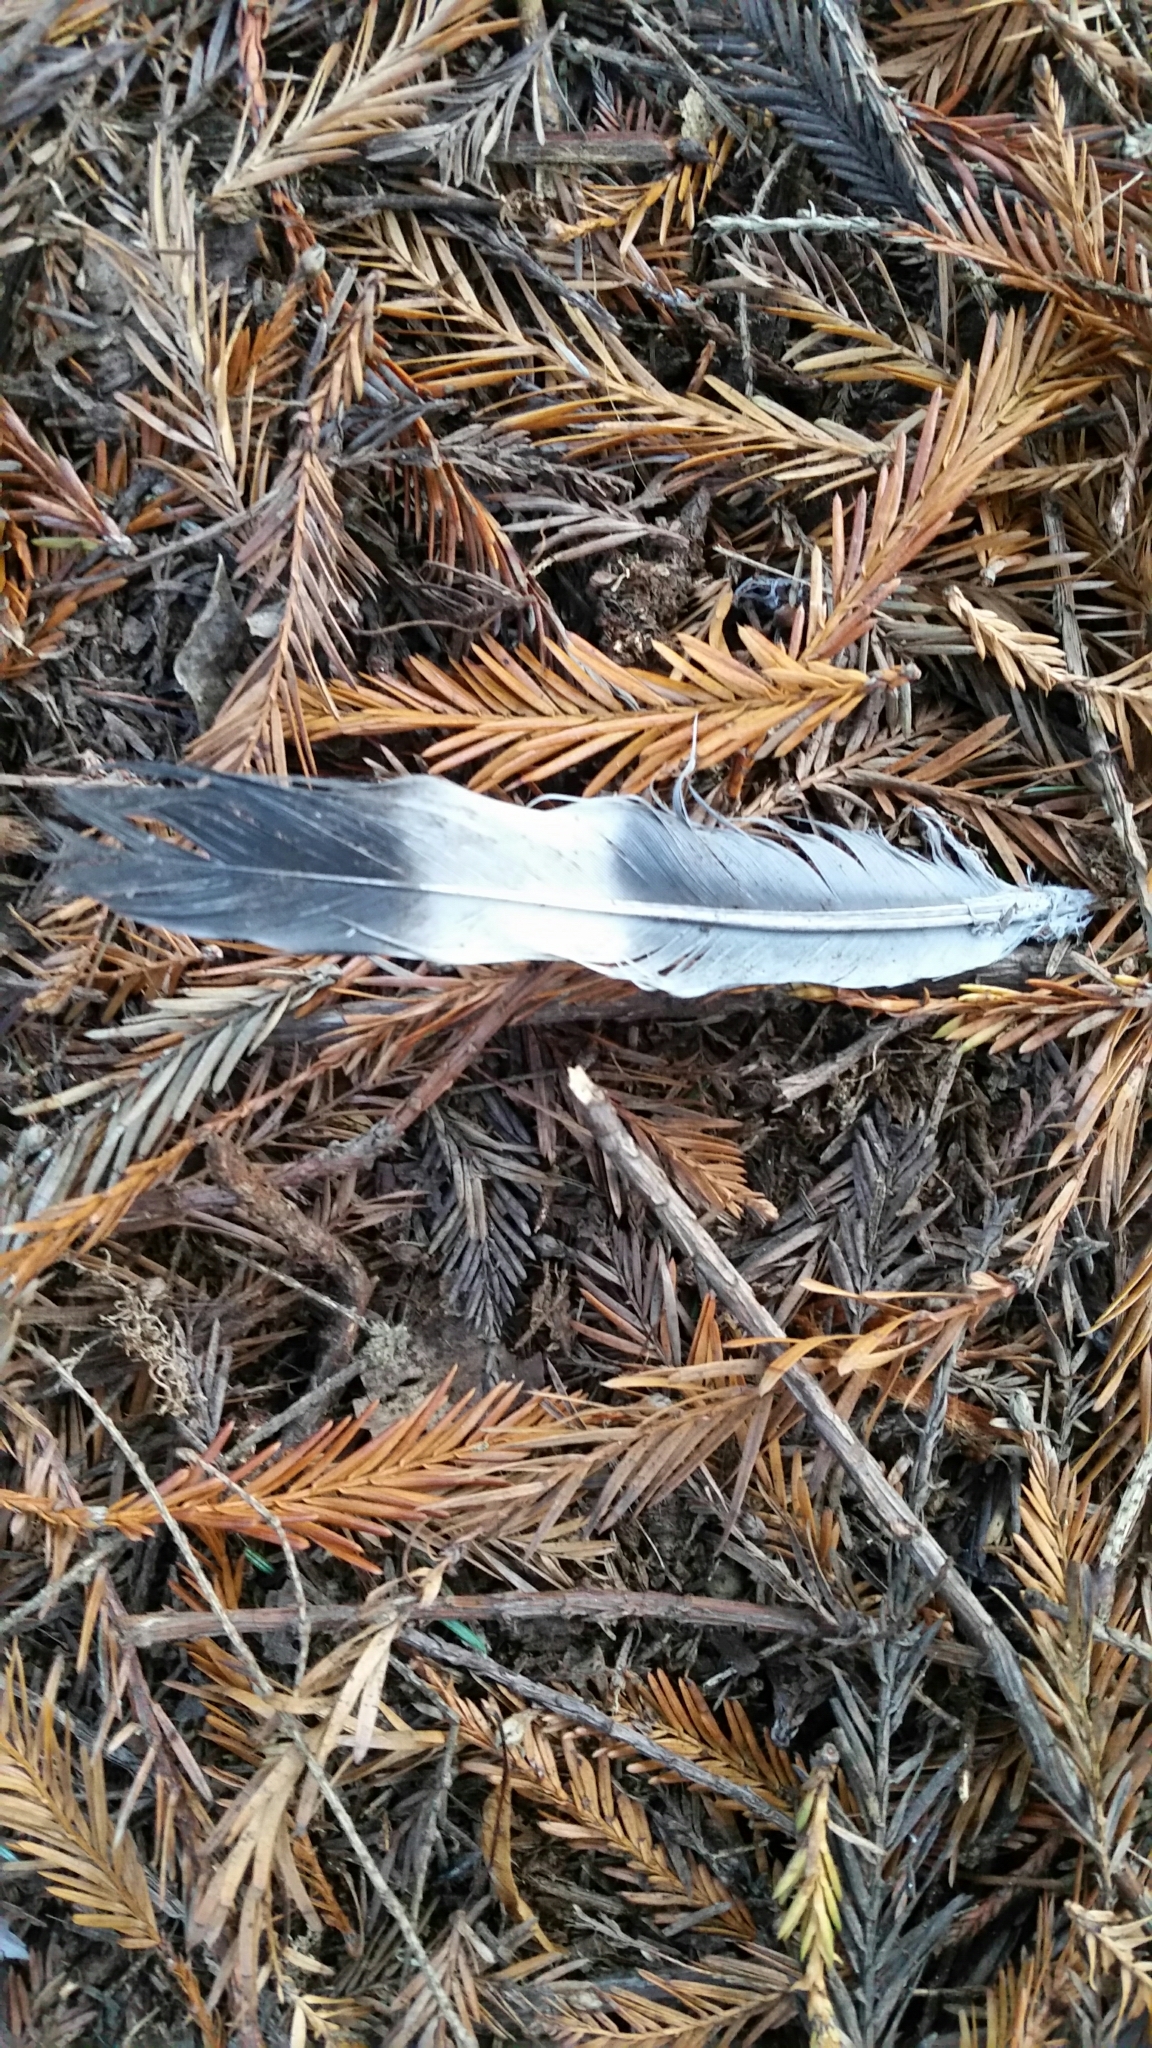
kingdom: Animalia
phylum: Chordata
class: Aves
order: Columbiformes
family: Columbidae
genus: Columba
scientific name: Columba palumbus
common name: Common wood pigeon
